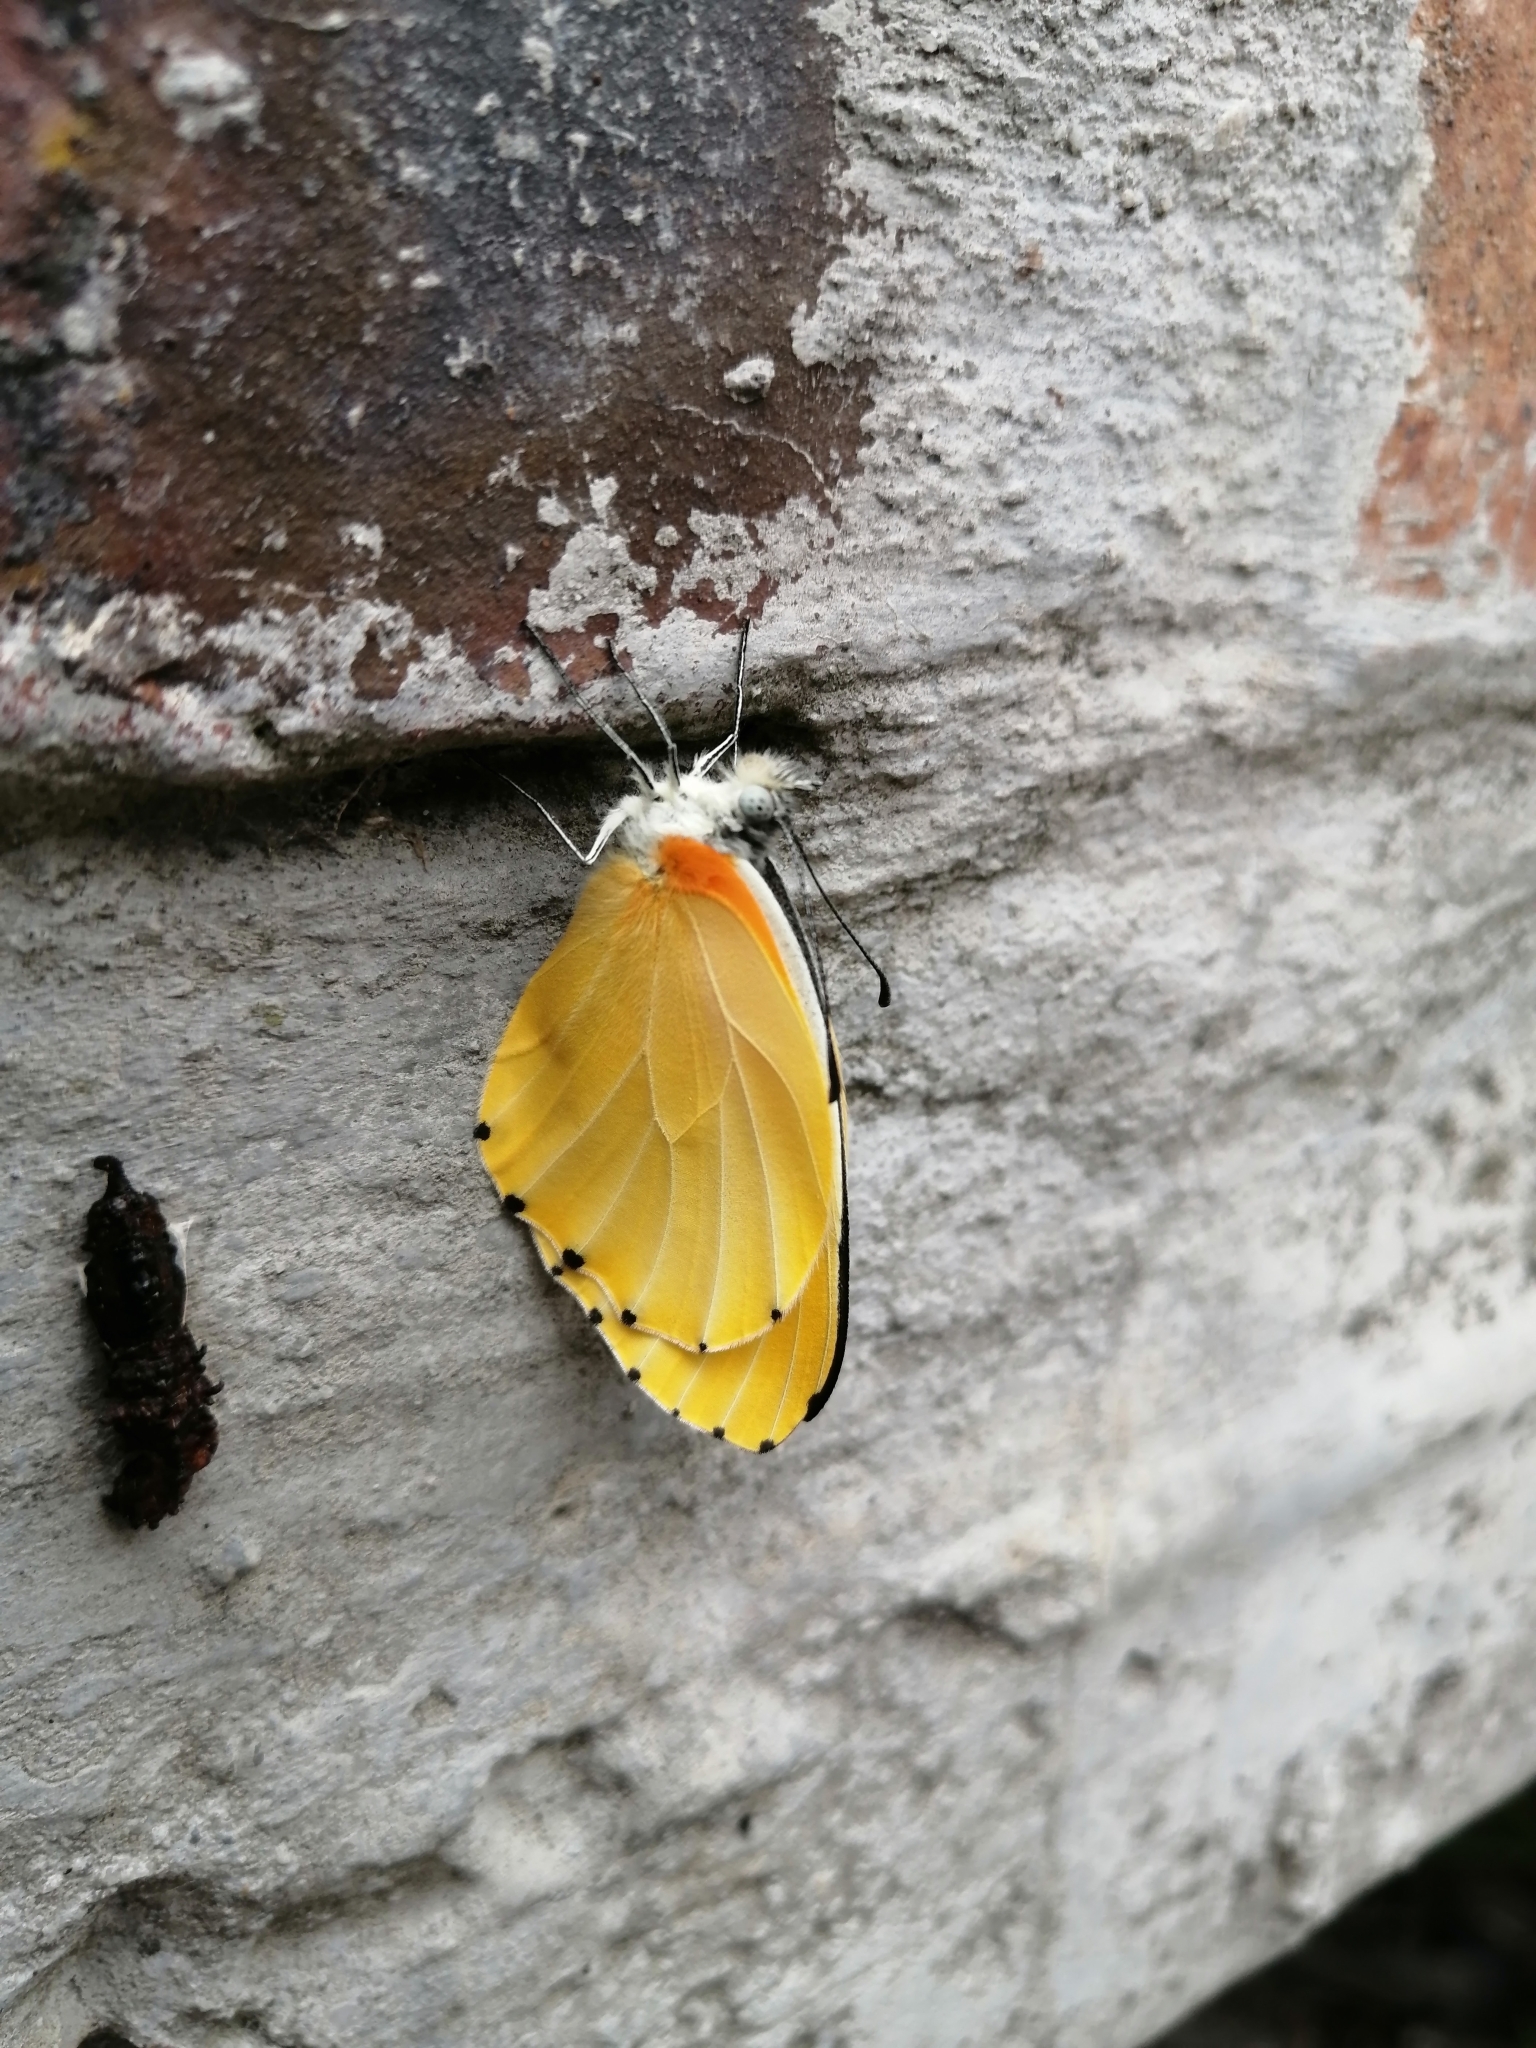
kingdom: Animalia
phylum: Arthropoda
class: Insecta
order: Lepidoptera
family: Pieridae
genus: Mylothris
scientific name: Mylothris agathina
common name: Eastern dotted border
